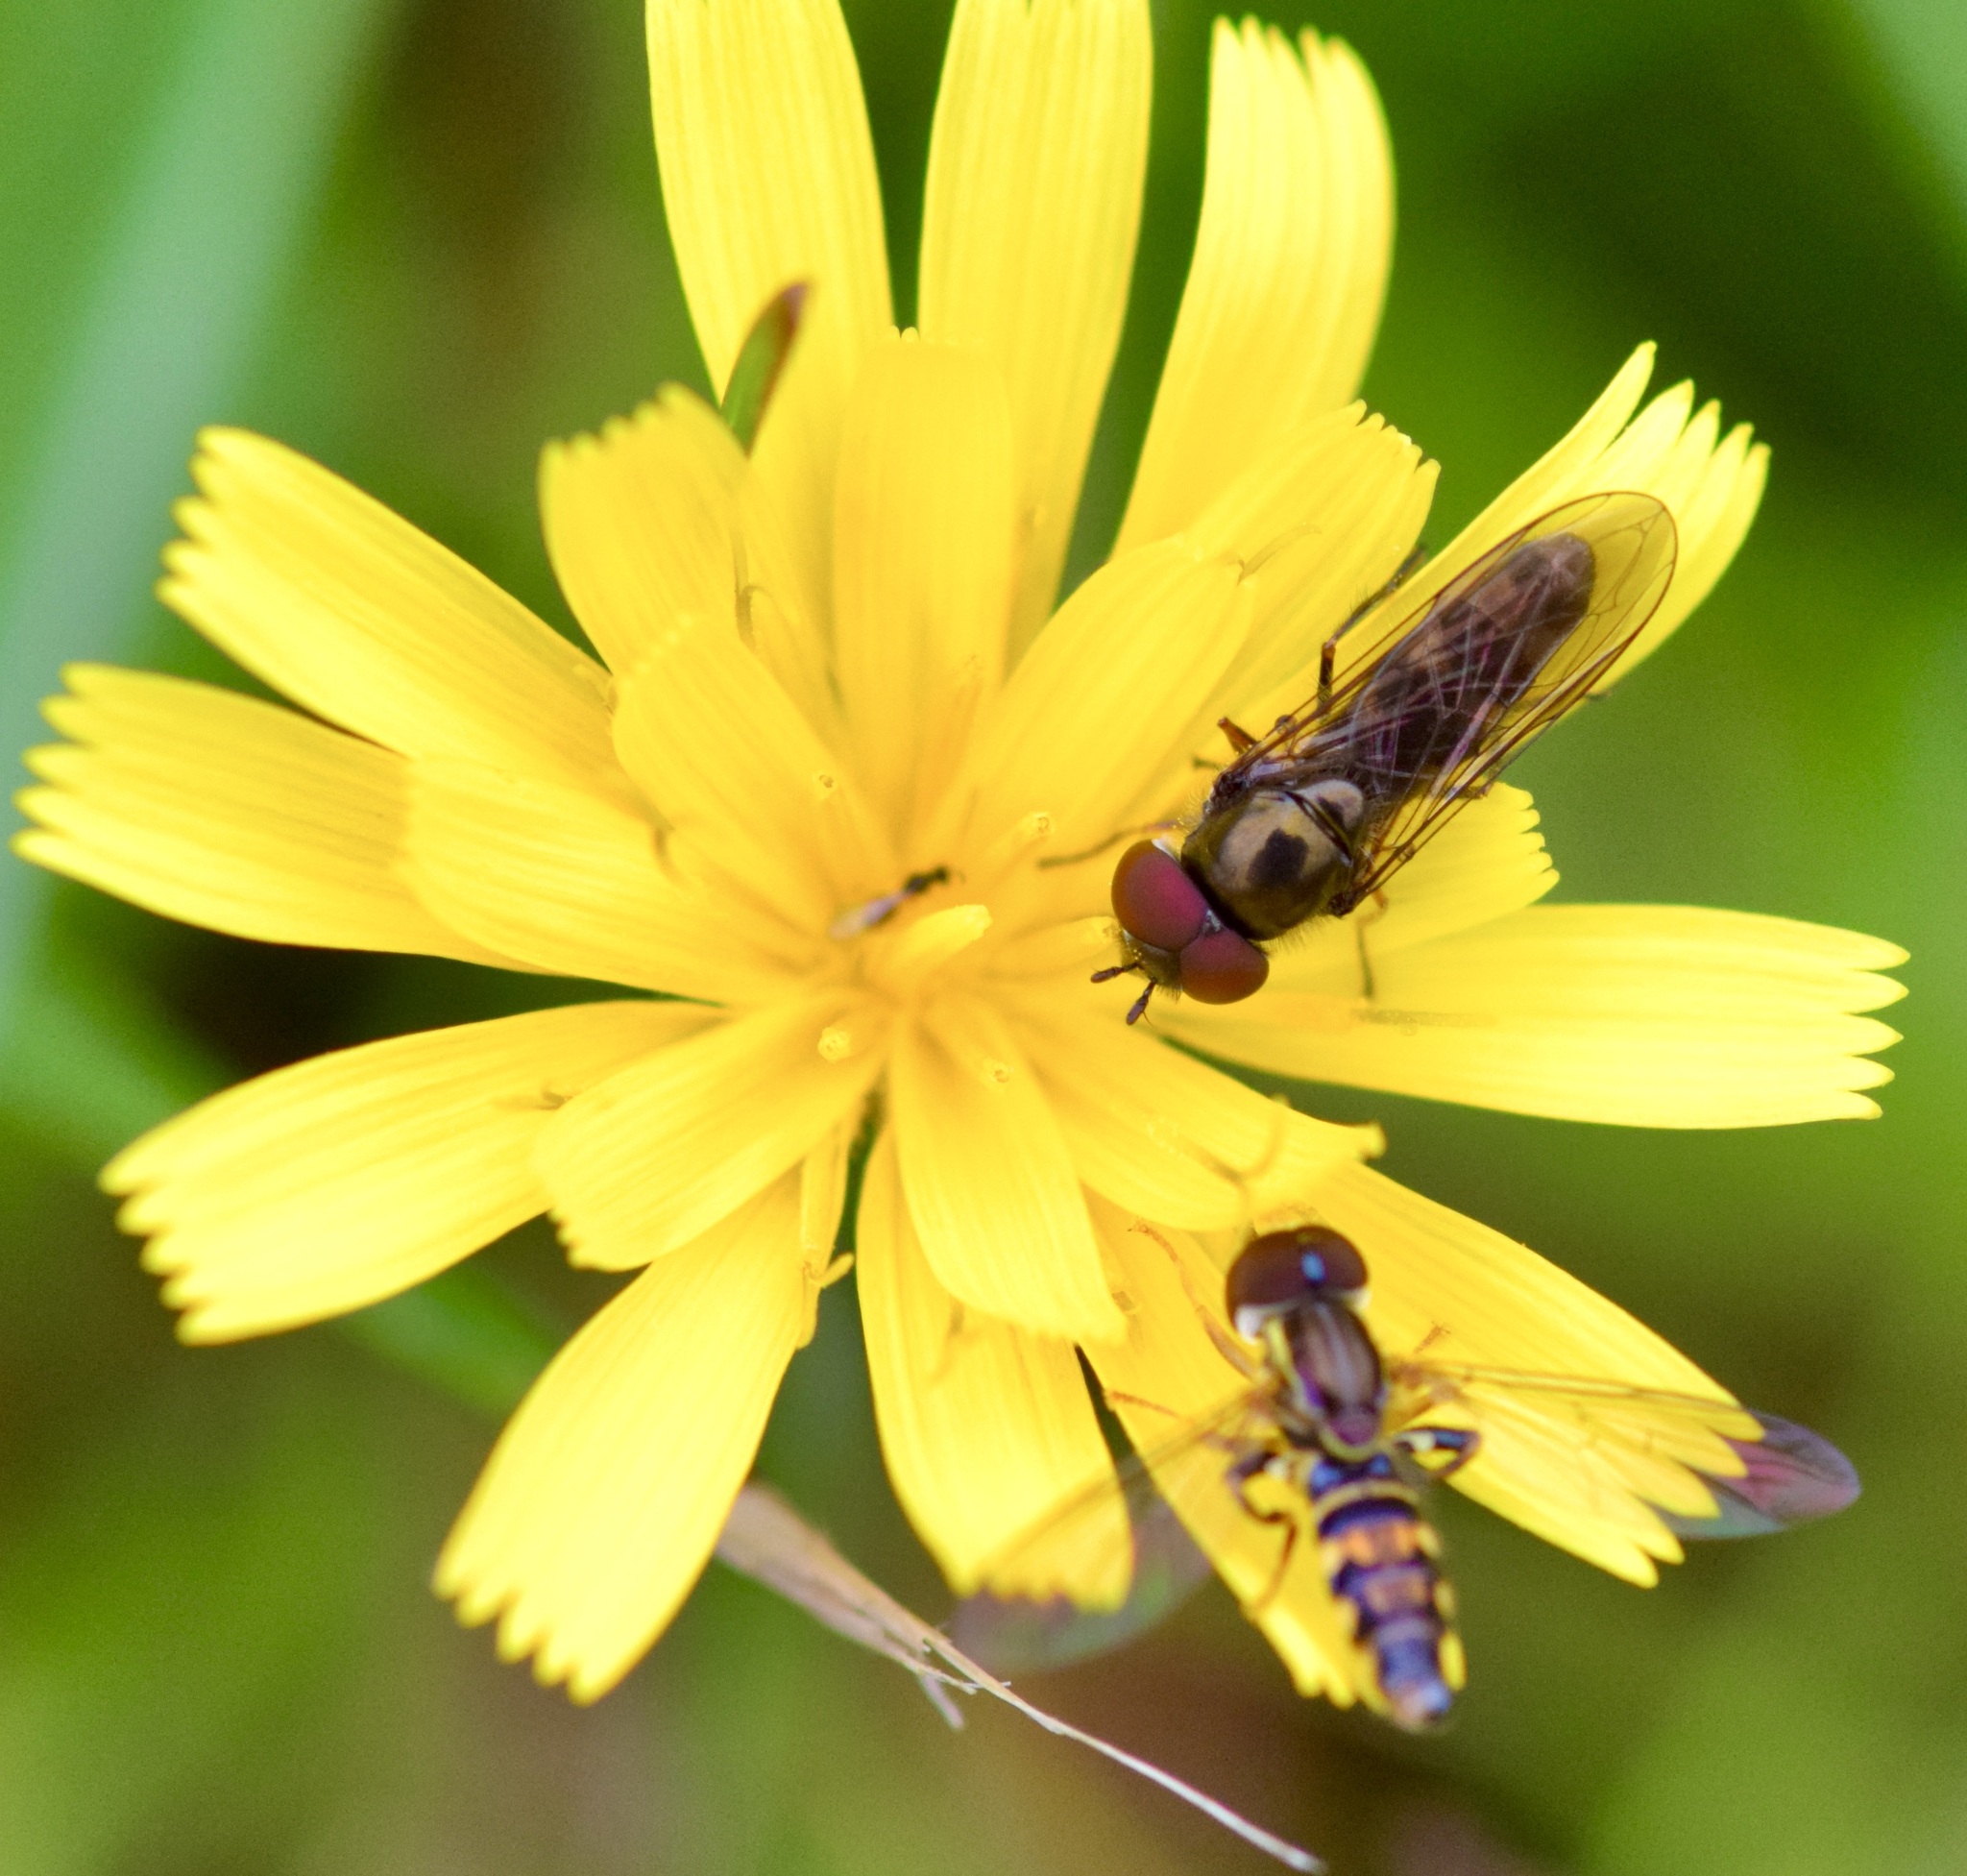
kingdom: Animalia
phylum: Arthropoda
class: Insecta
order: Diptera
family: Syrphidae
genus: Toxomerus
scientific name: Toxomerus geminatus
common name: Eastern calligrapher
